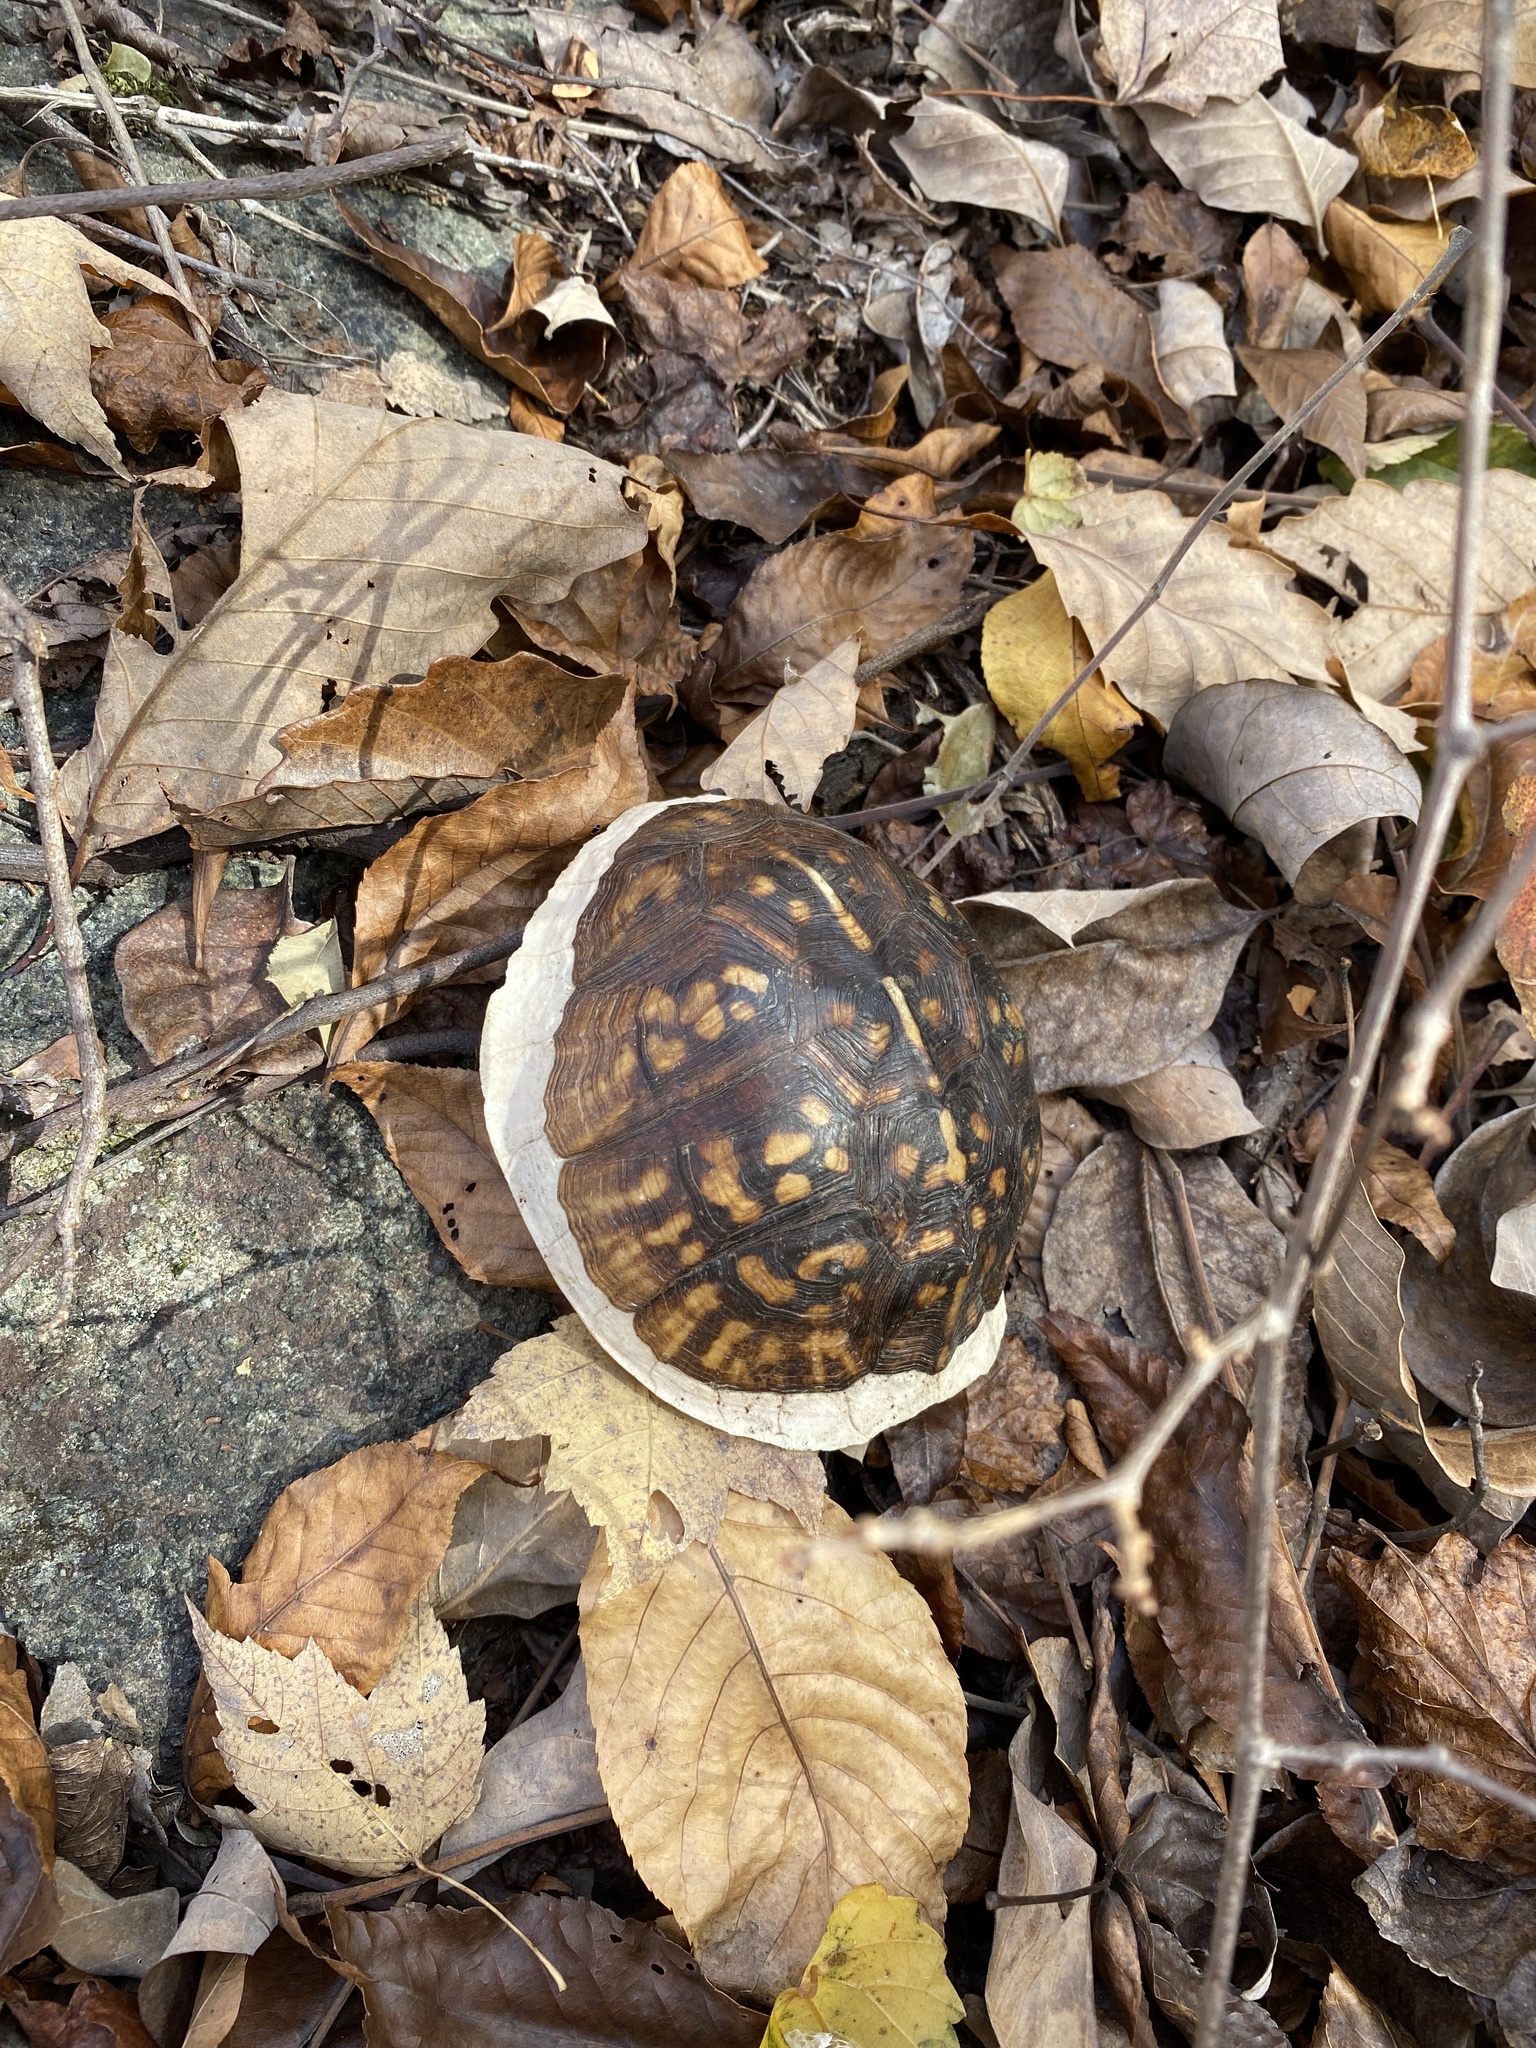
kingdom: Animalia
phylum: Chordata
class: Testudines
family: Emydidae
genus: Terrapene
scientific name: Terrapene carolina
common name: Common box turtle
